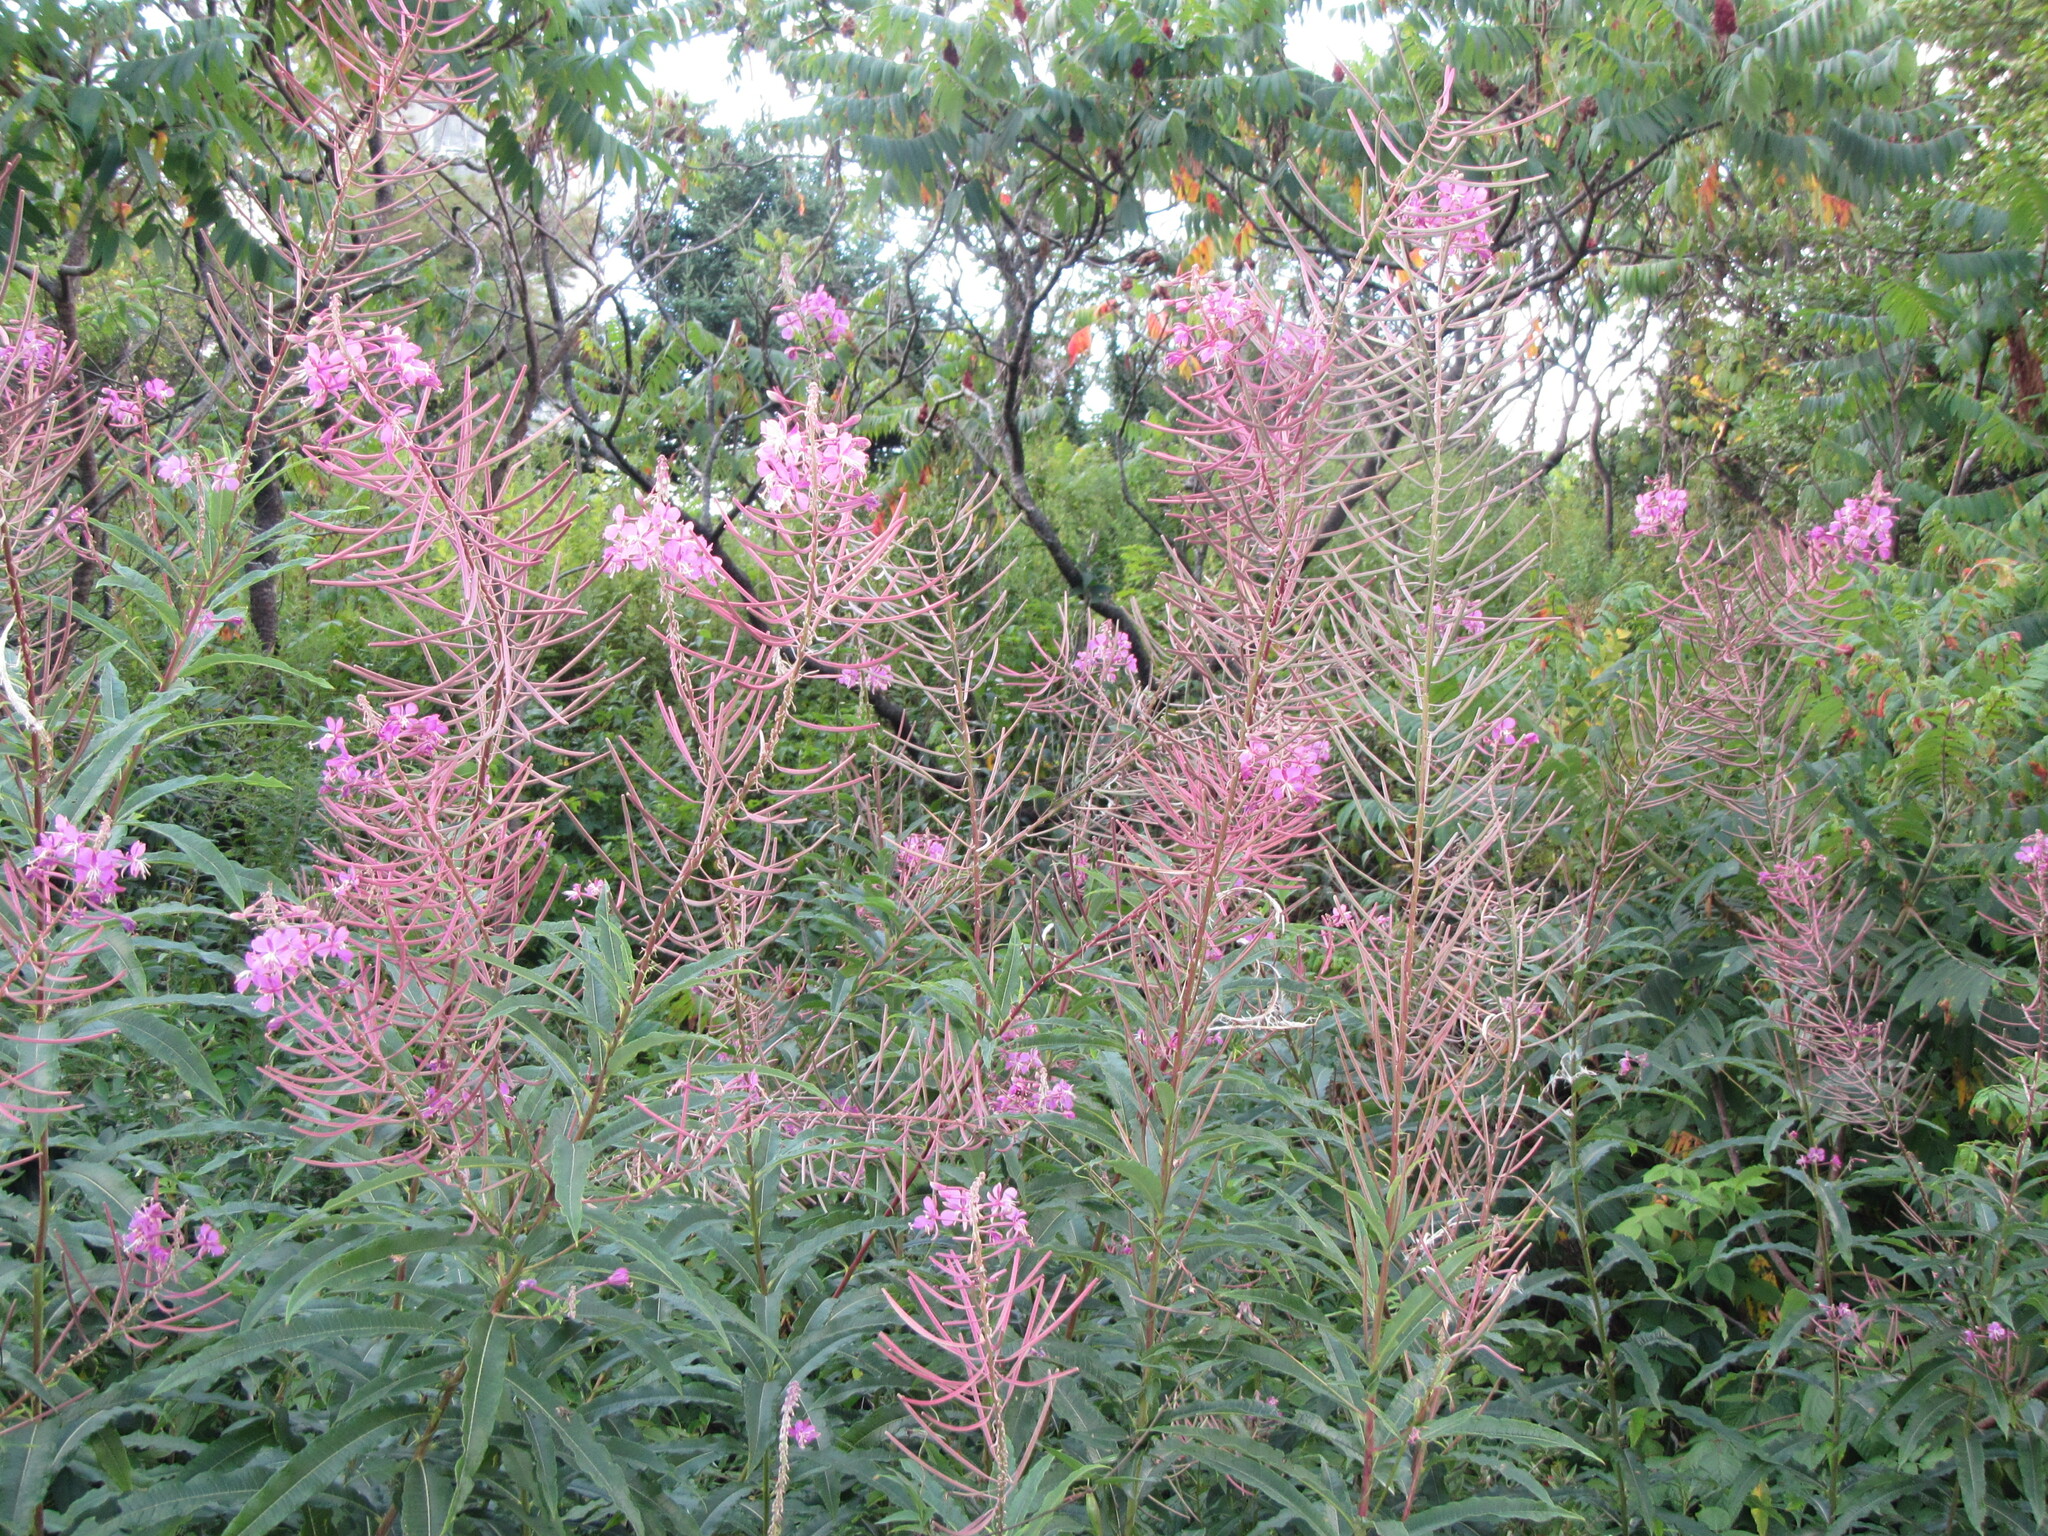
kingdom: Plantae
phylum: Tracheophyta
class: Magnoliopsida
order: Myrtales
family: Onagraceae
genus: Chamaenerion
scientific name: Chamaenerion angustifolium
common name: Fireweed
